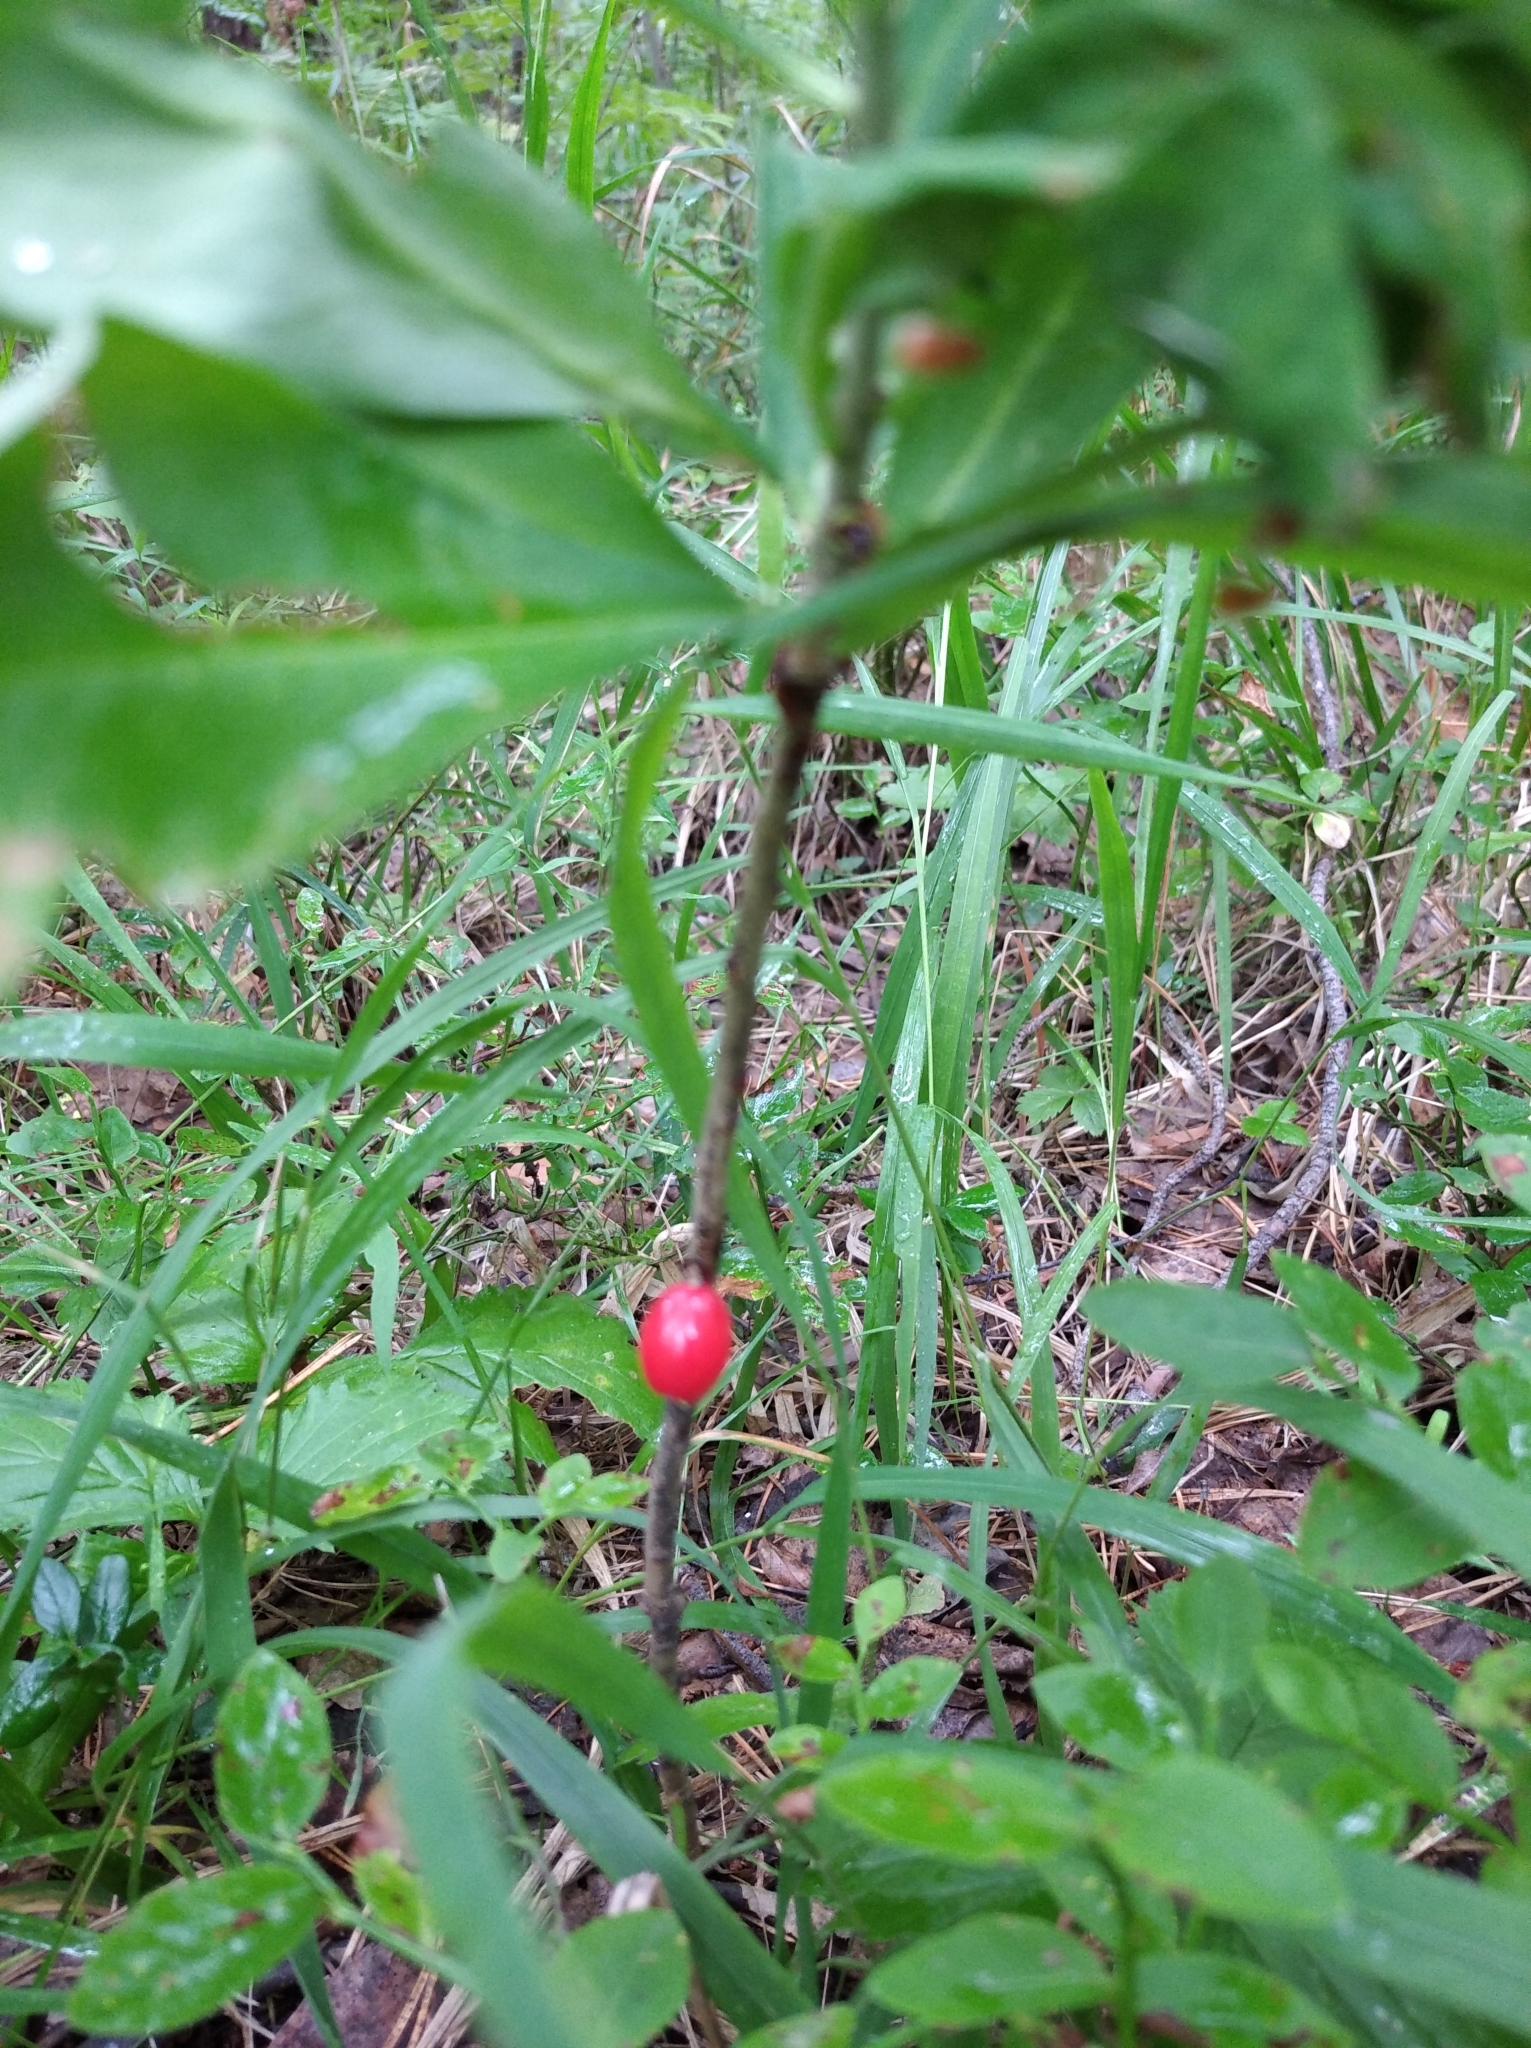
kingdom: Plantae
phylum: Tracheophyta
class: Magnoliopsida
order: Malvales
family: Thymelaeaceae
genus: Daphne
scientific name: Daphne mezereum
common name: Mezereon
